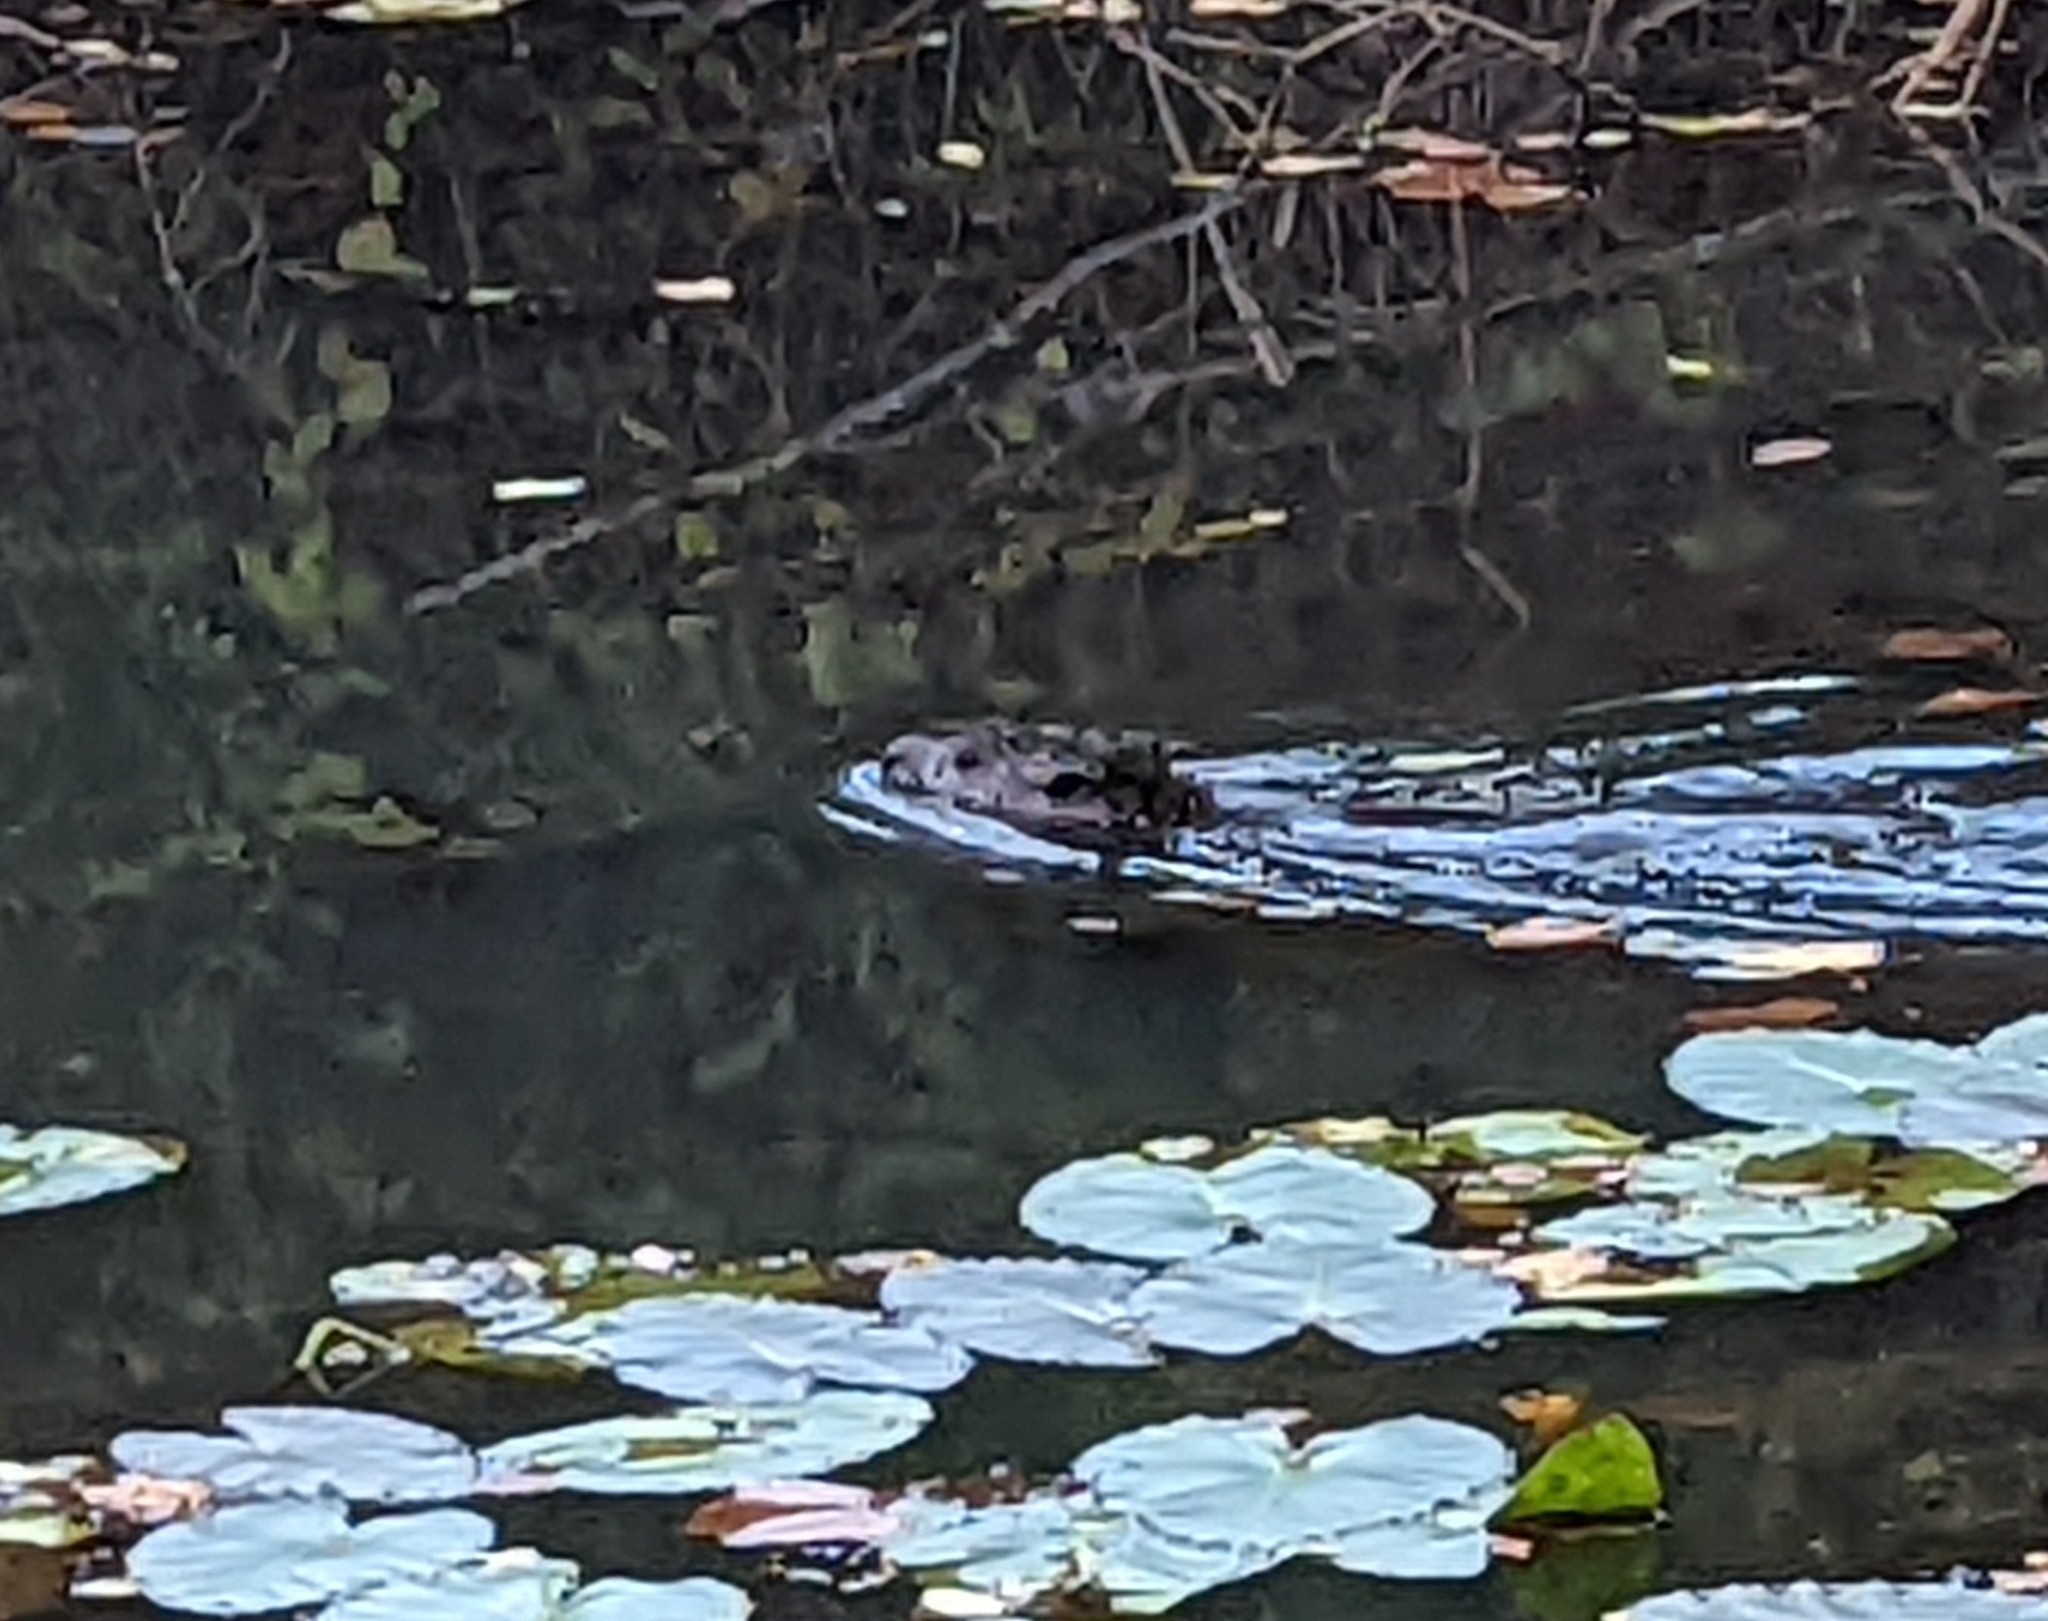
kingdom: Animalia
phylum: Chordata
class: Mammalia
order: Rodentia
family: Castoridae
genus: Castor
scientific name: Castor canadensis
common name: American beaver
